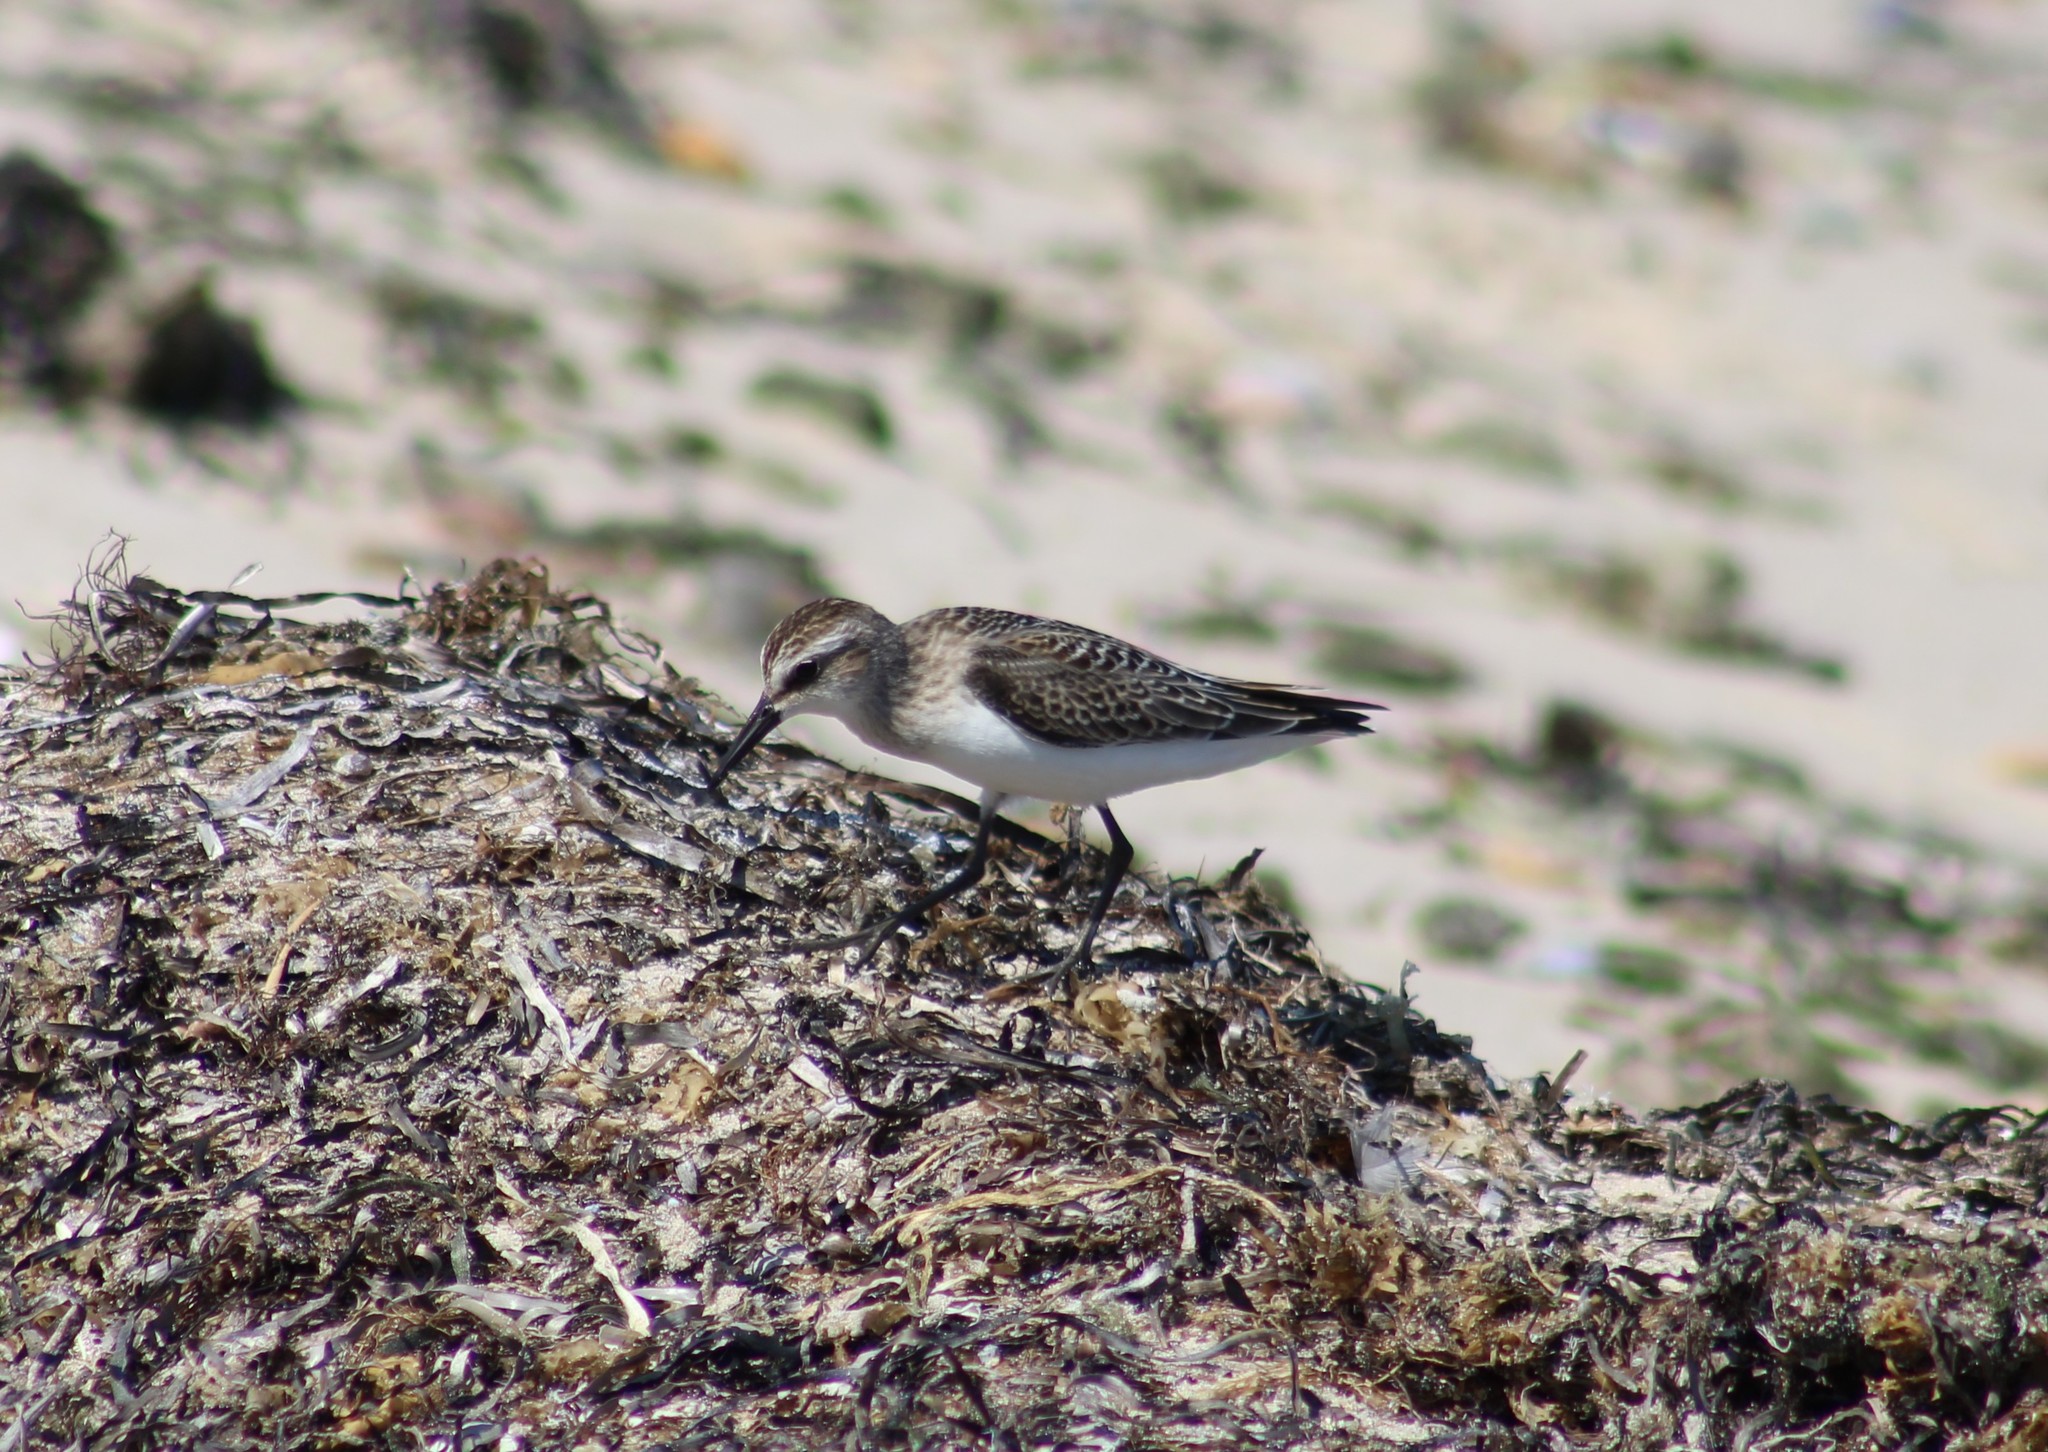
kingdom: Animalia
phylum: Chordata
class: Aves
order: Charadriiformes
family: Scolopacidae
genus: Calidris
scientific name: Calidris pusilla
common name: Semipalmated sandpiper
